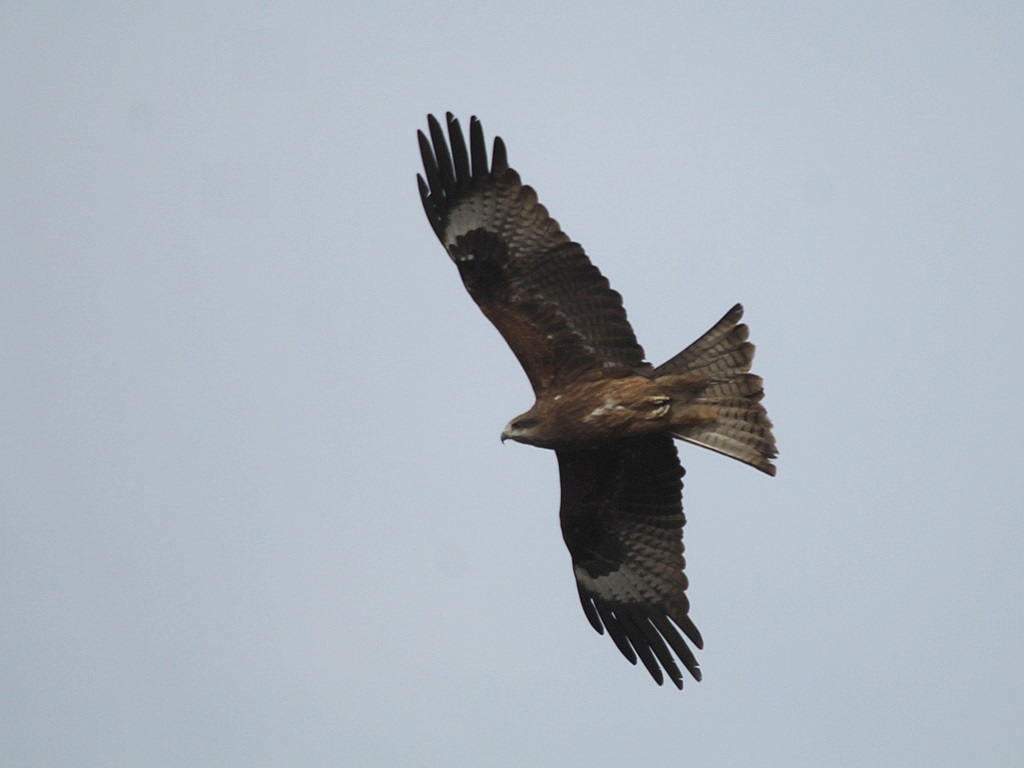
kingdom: Animalia
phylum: Chordata
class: Aves
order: Accipitriformes
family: Accipitridae
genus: Milvus
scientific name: Milvus migrans
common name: Black kite
